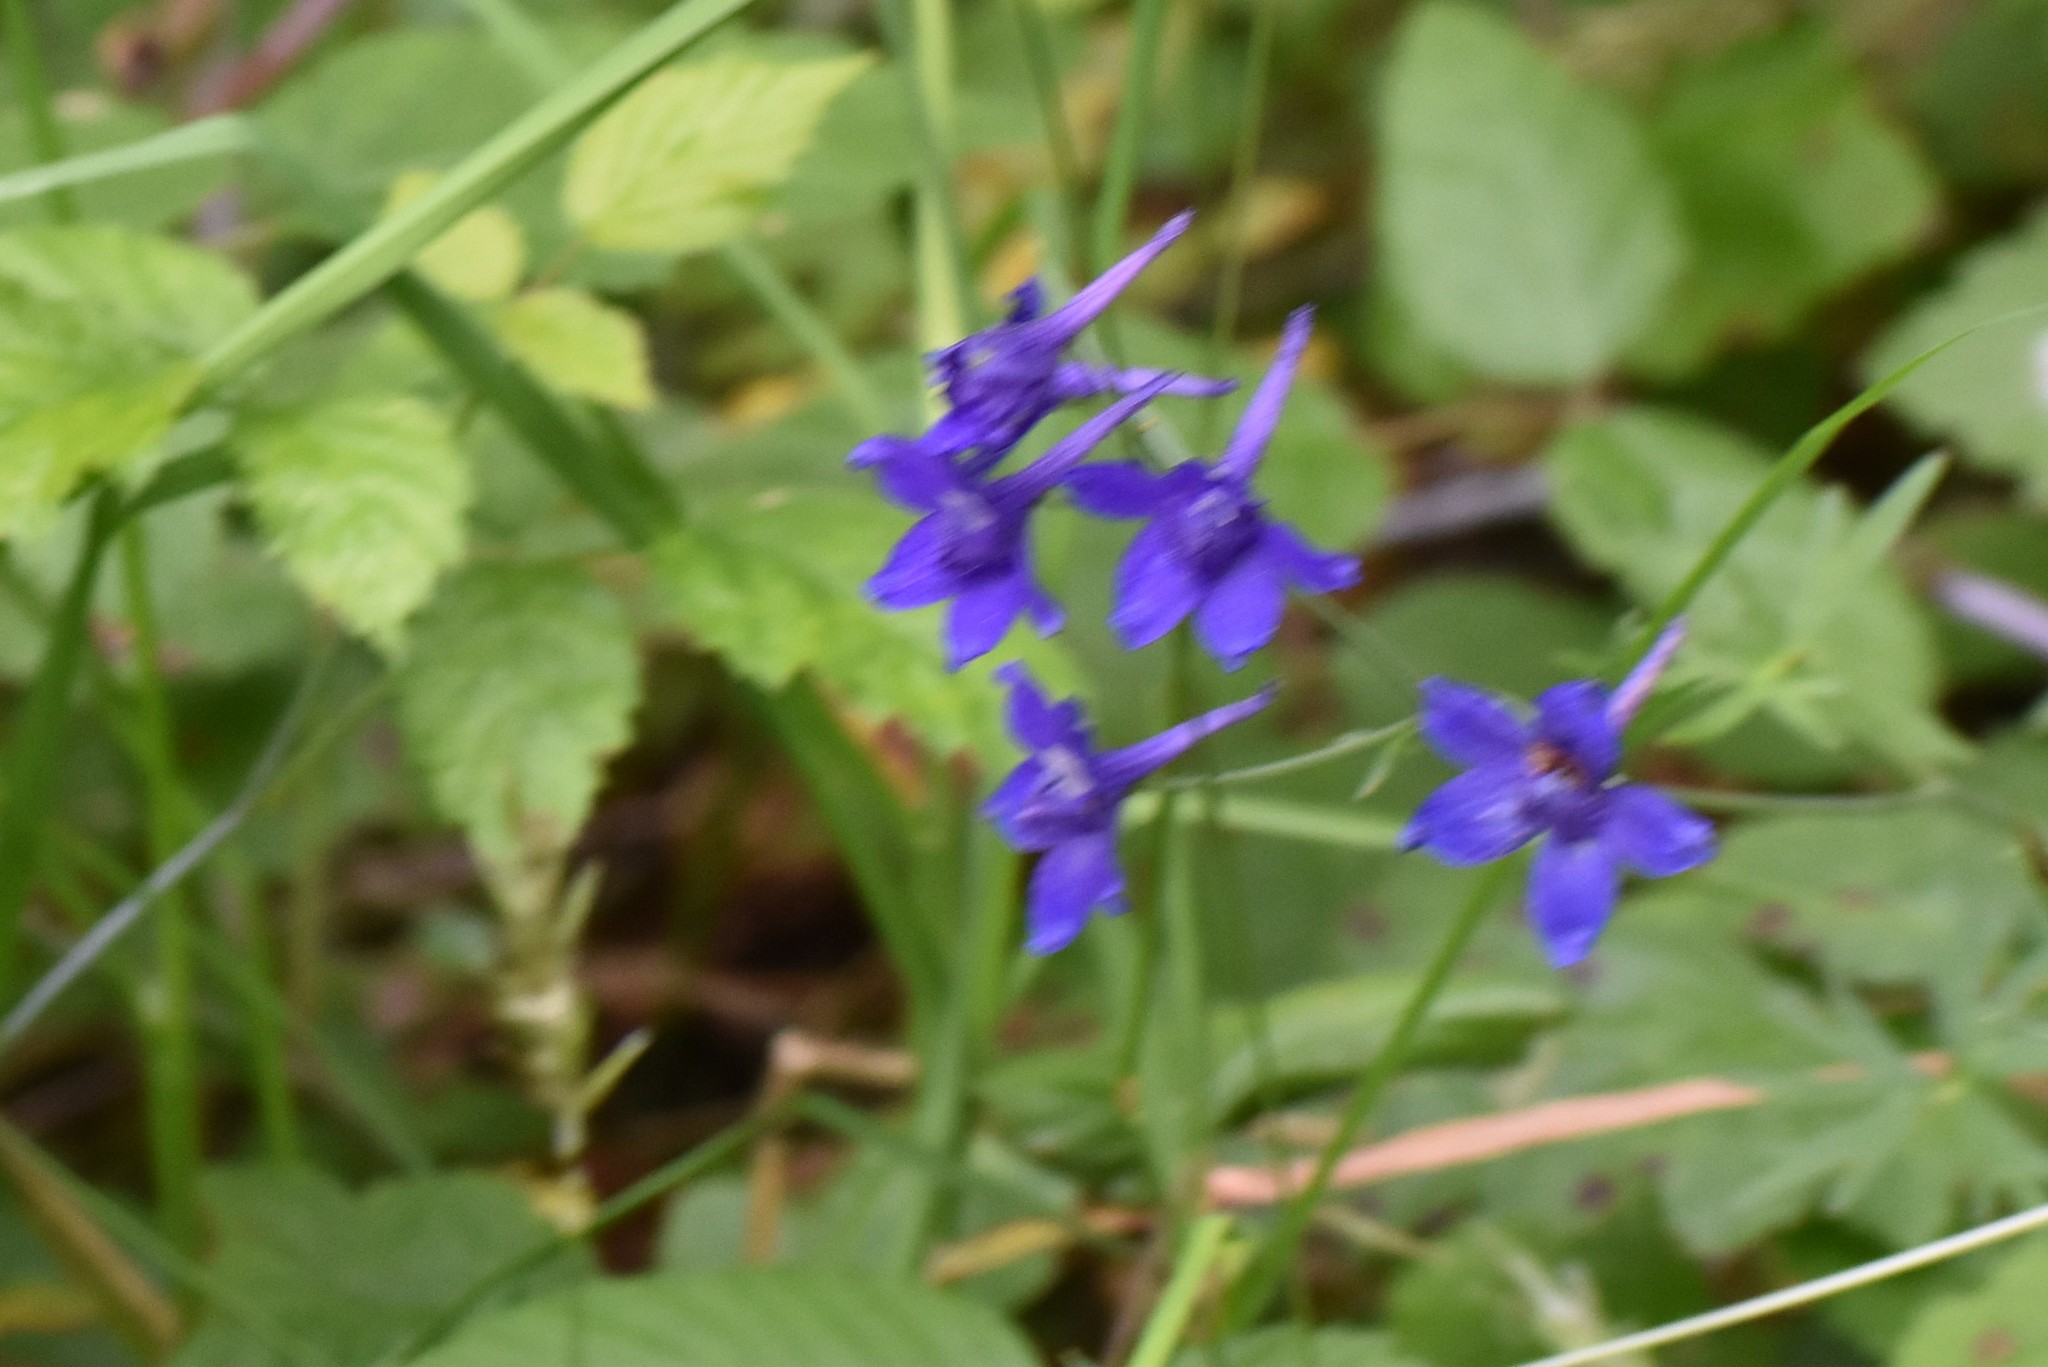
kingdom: Plantae
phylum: Tracheophyta
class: Magnoliopsida
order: Ranunculales
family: Ranunculaceae
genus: Delphinium
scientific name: Delphinium menziesii
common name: Menzies's larkspur
